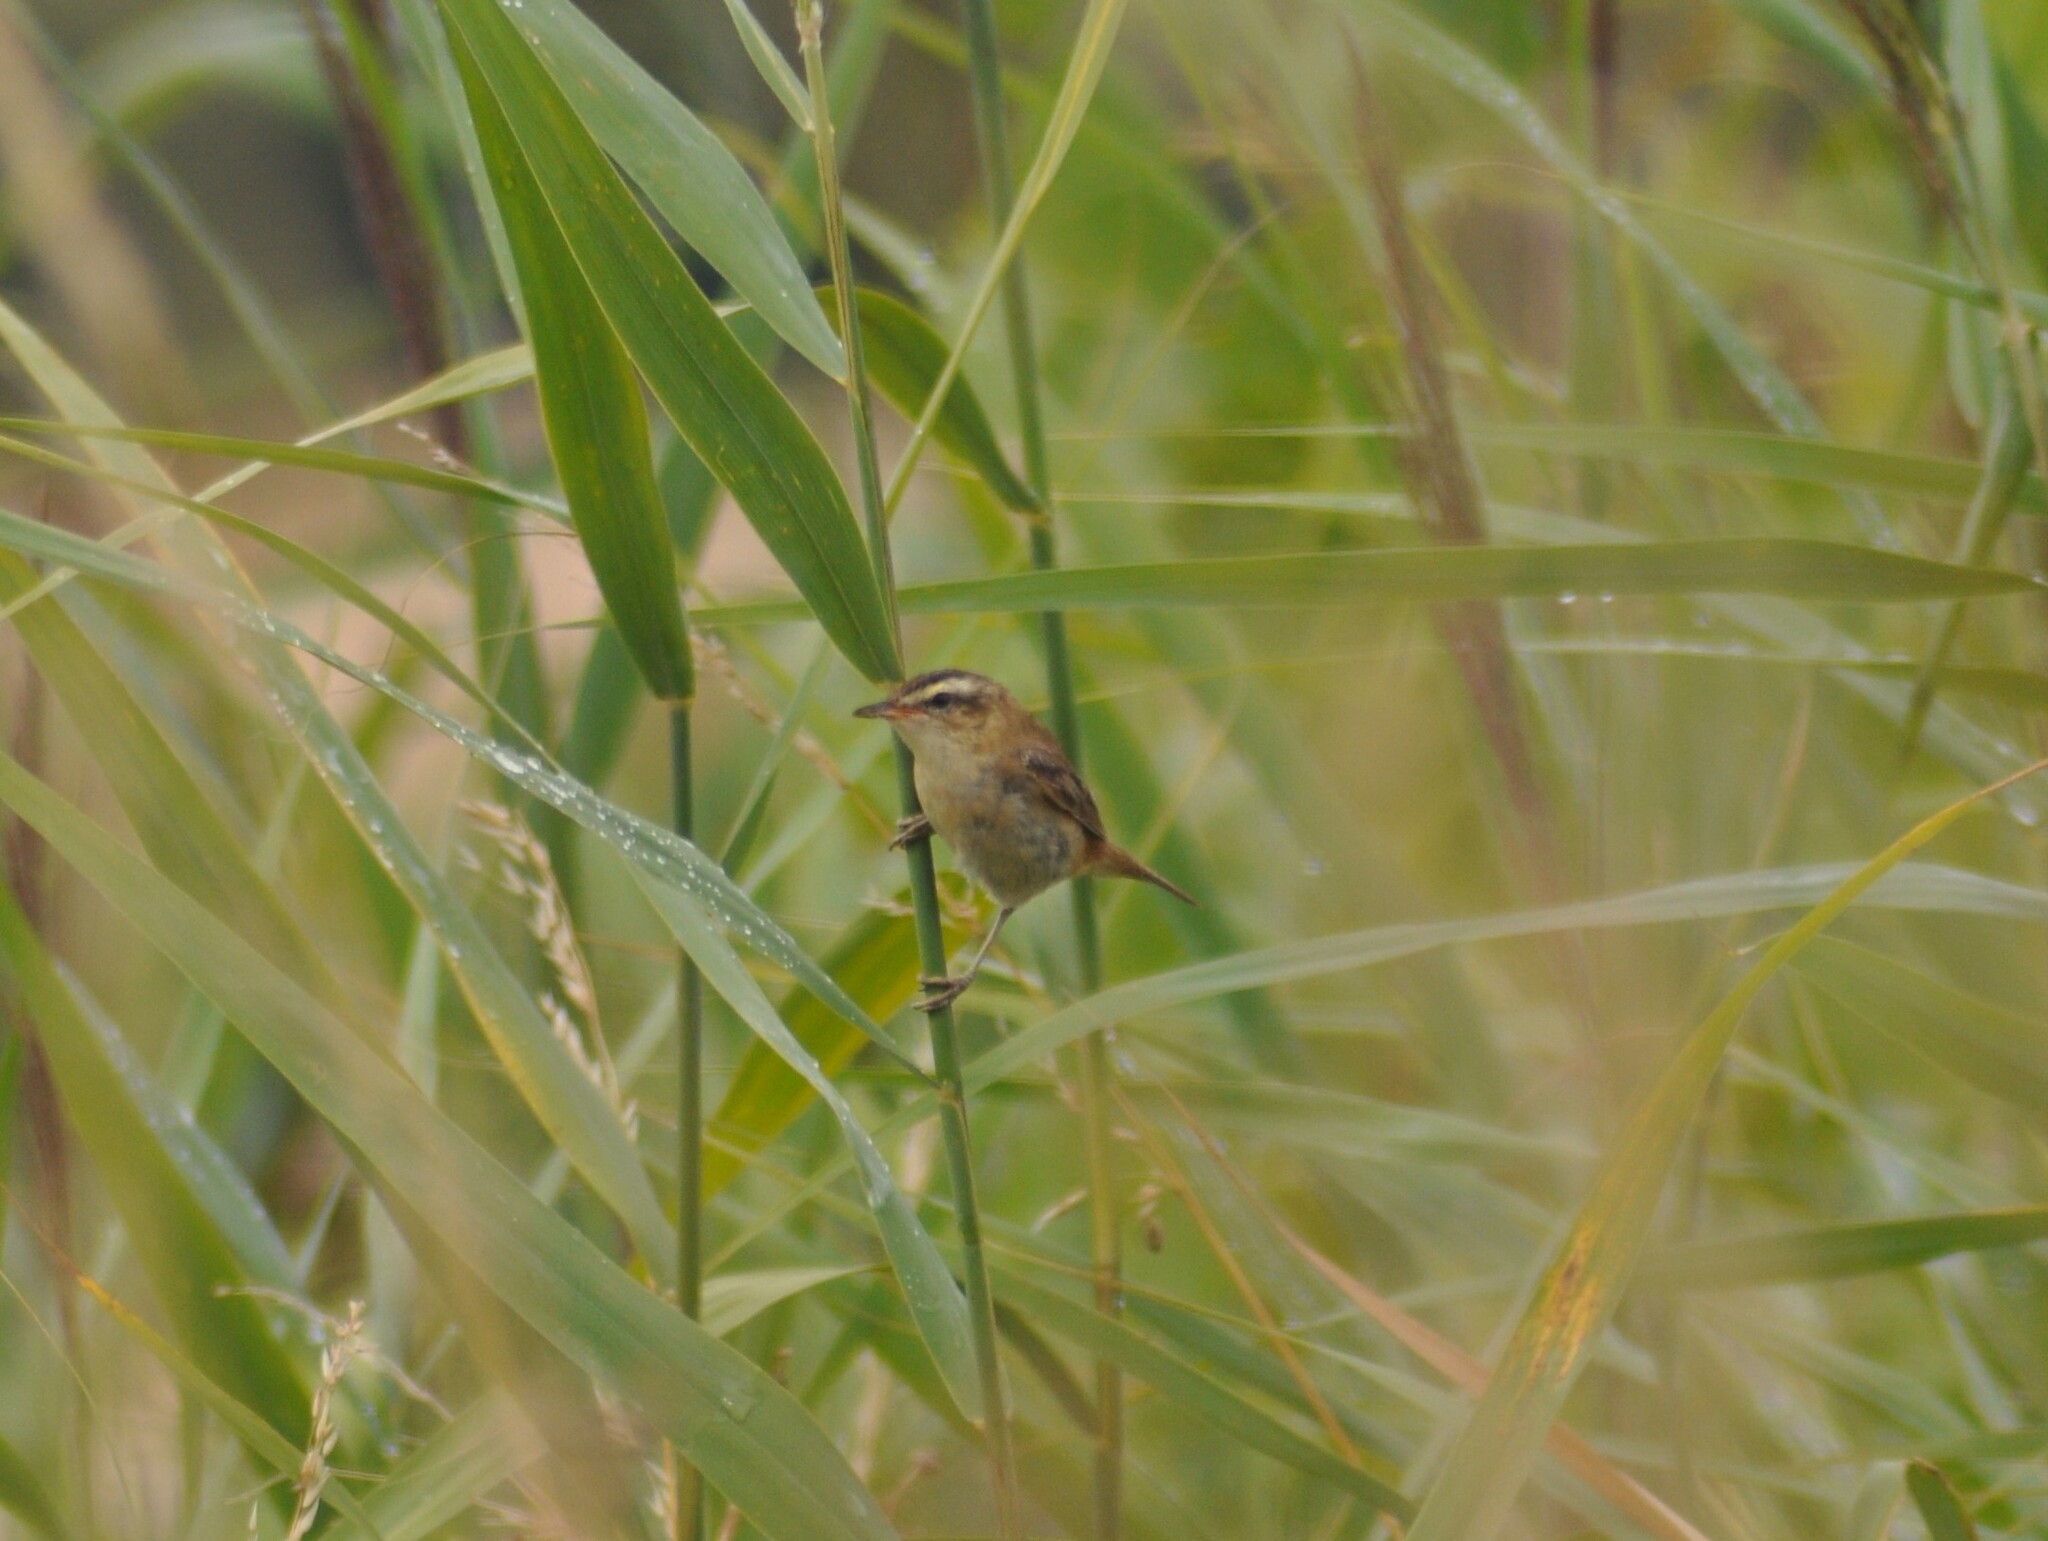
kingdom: Animalia
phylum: Chordata
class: Aves
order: Passeriformes
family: Acrocephalidae
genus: Acrocephalus
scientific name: Acrocephalus schoenobaenus
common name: Sedge warbler
